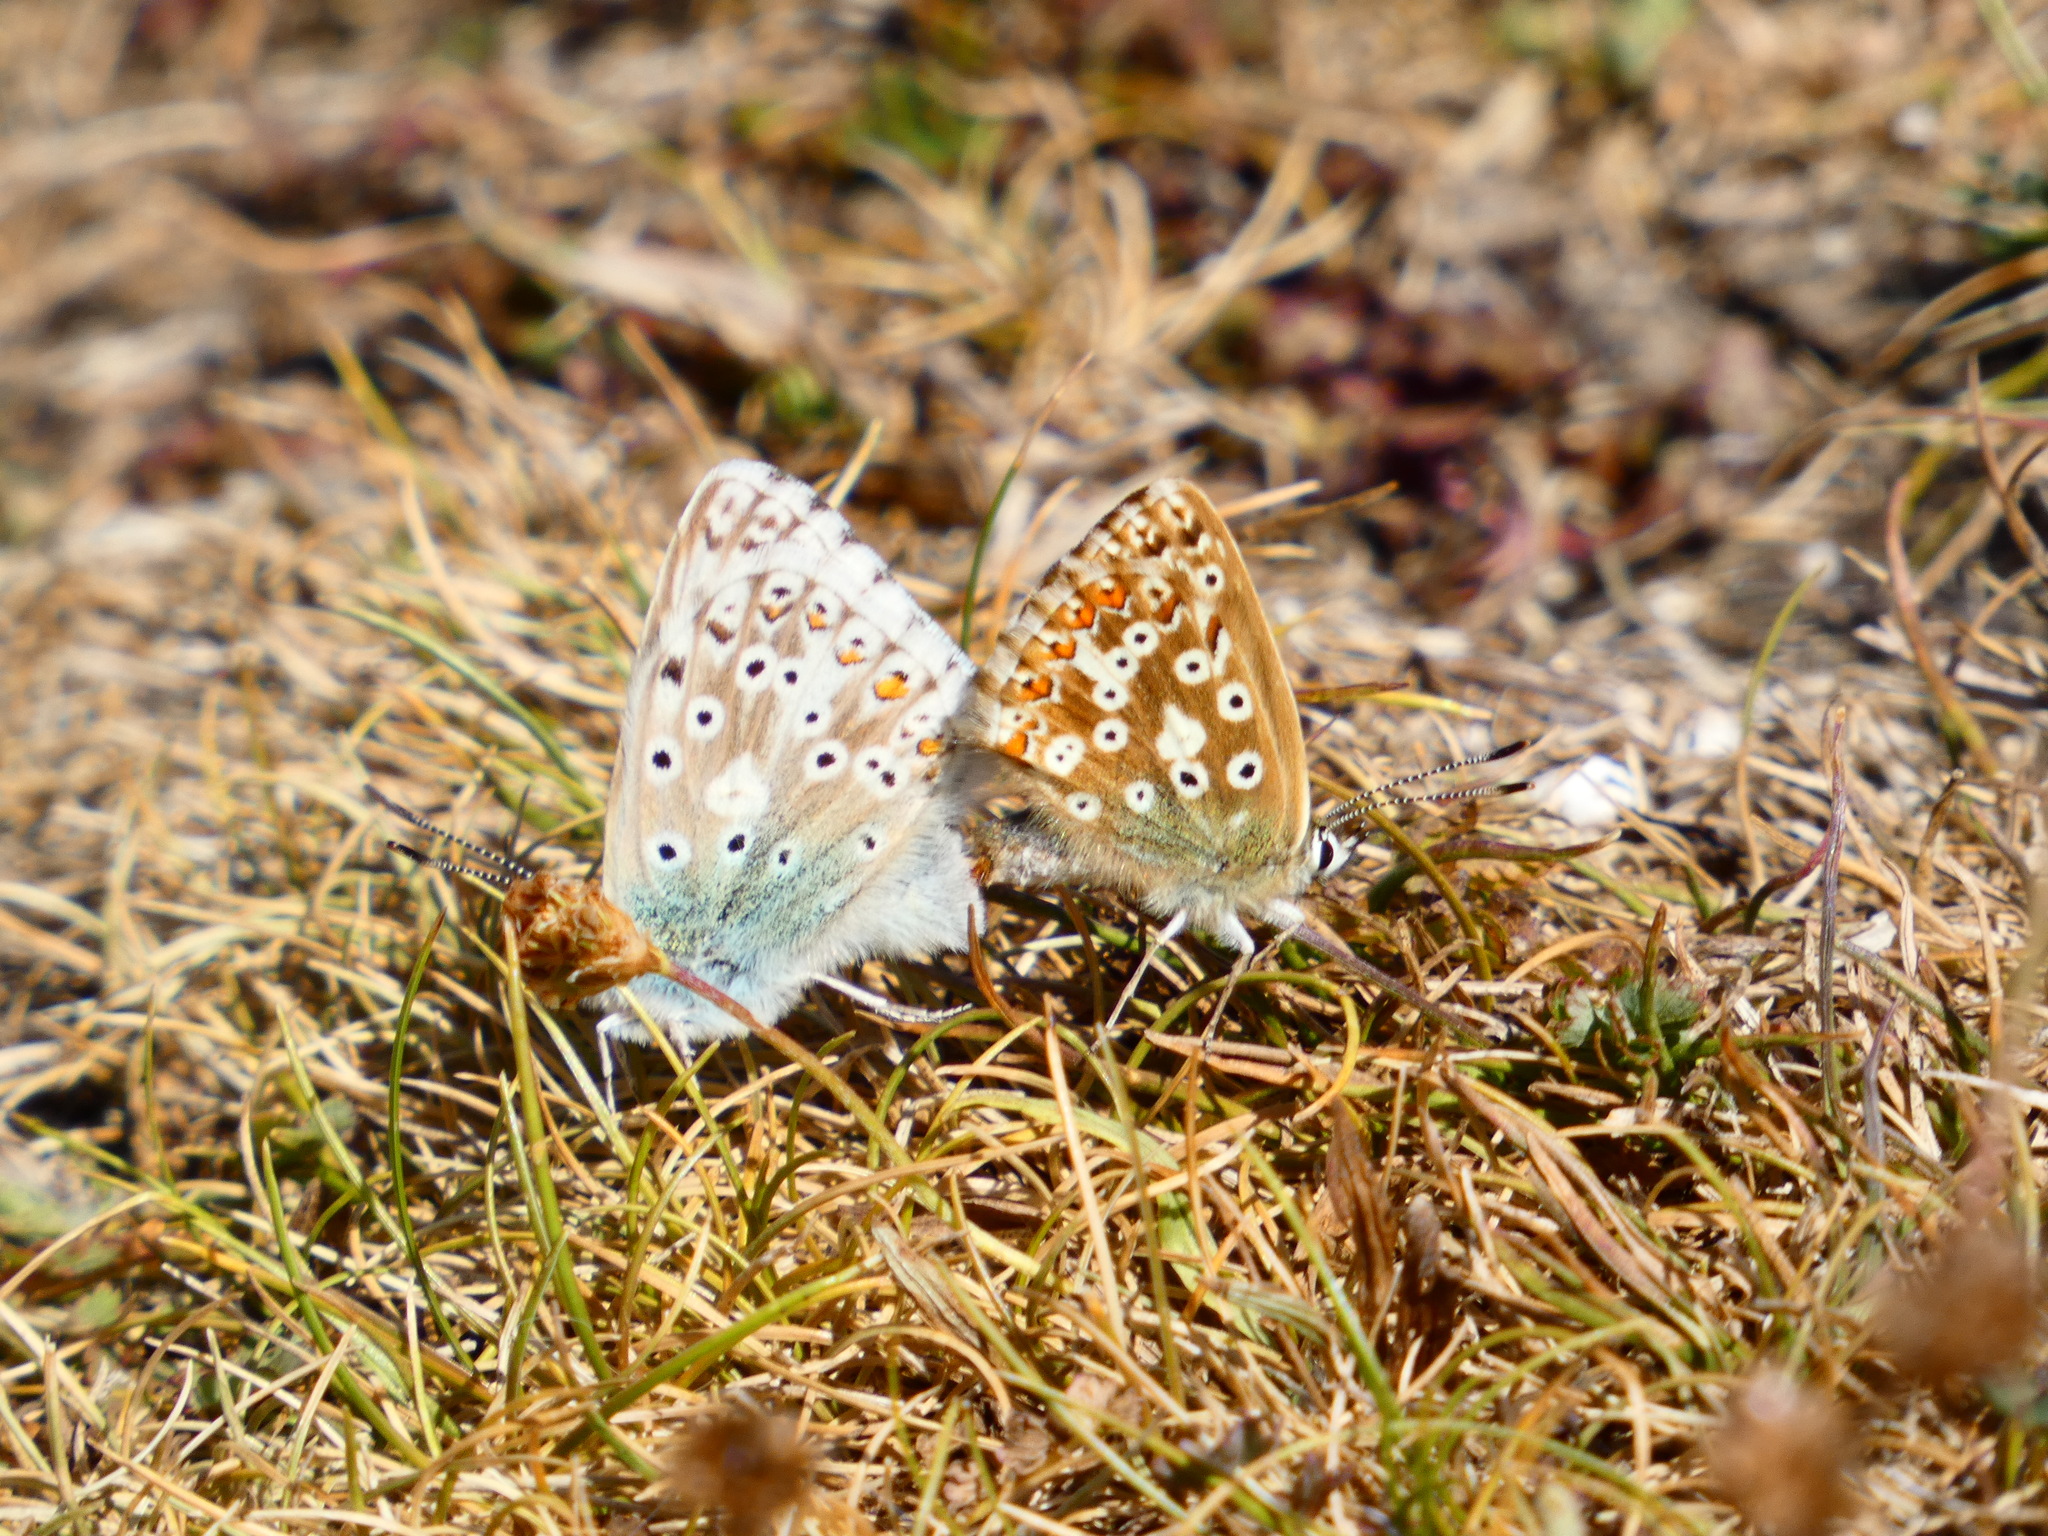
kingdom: Animalia
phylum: Arthropoda
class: Insecta
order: Lepidoptera
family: Lycaenidae
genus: Lysandra
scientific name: Lysandra coridon
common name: Chalkhill blue
